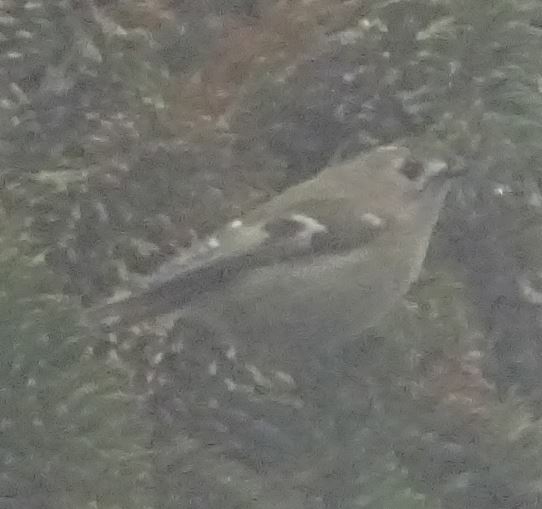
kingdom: Animalia
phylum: Chordata
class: Aves
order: Passeriformes
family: Regulidae
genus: Regulus
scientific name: Regulus regulus
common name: Goldcrest
